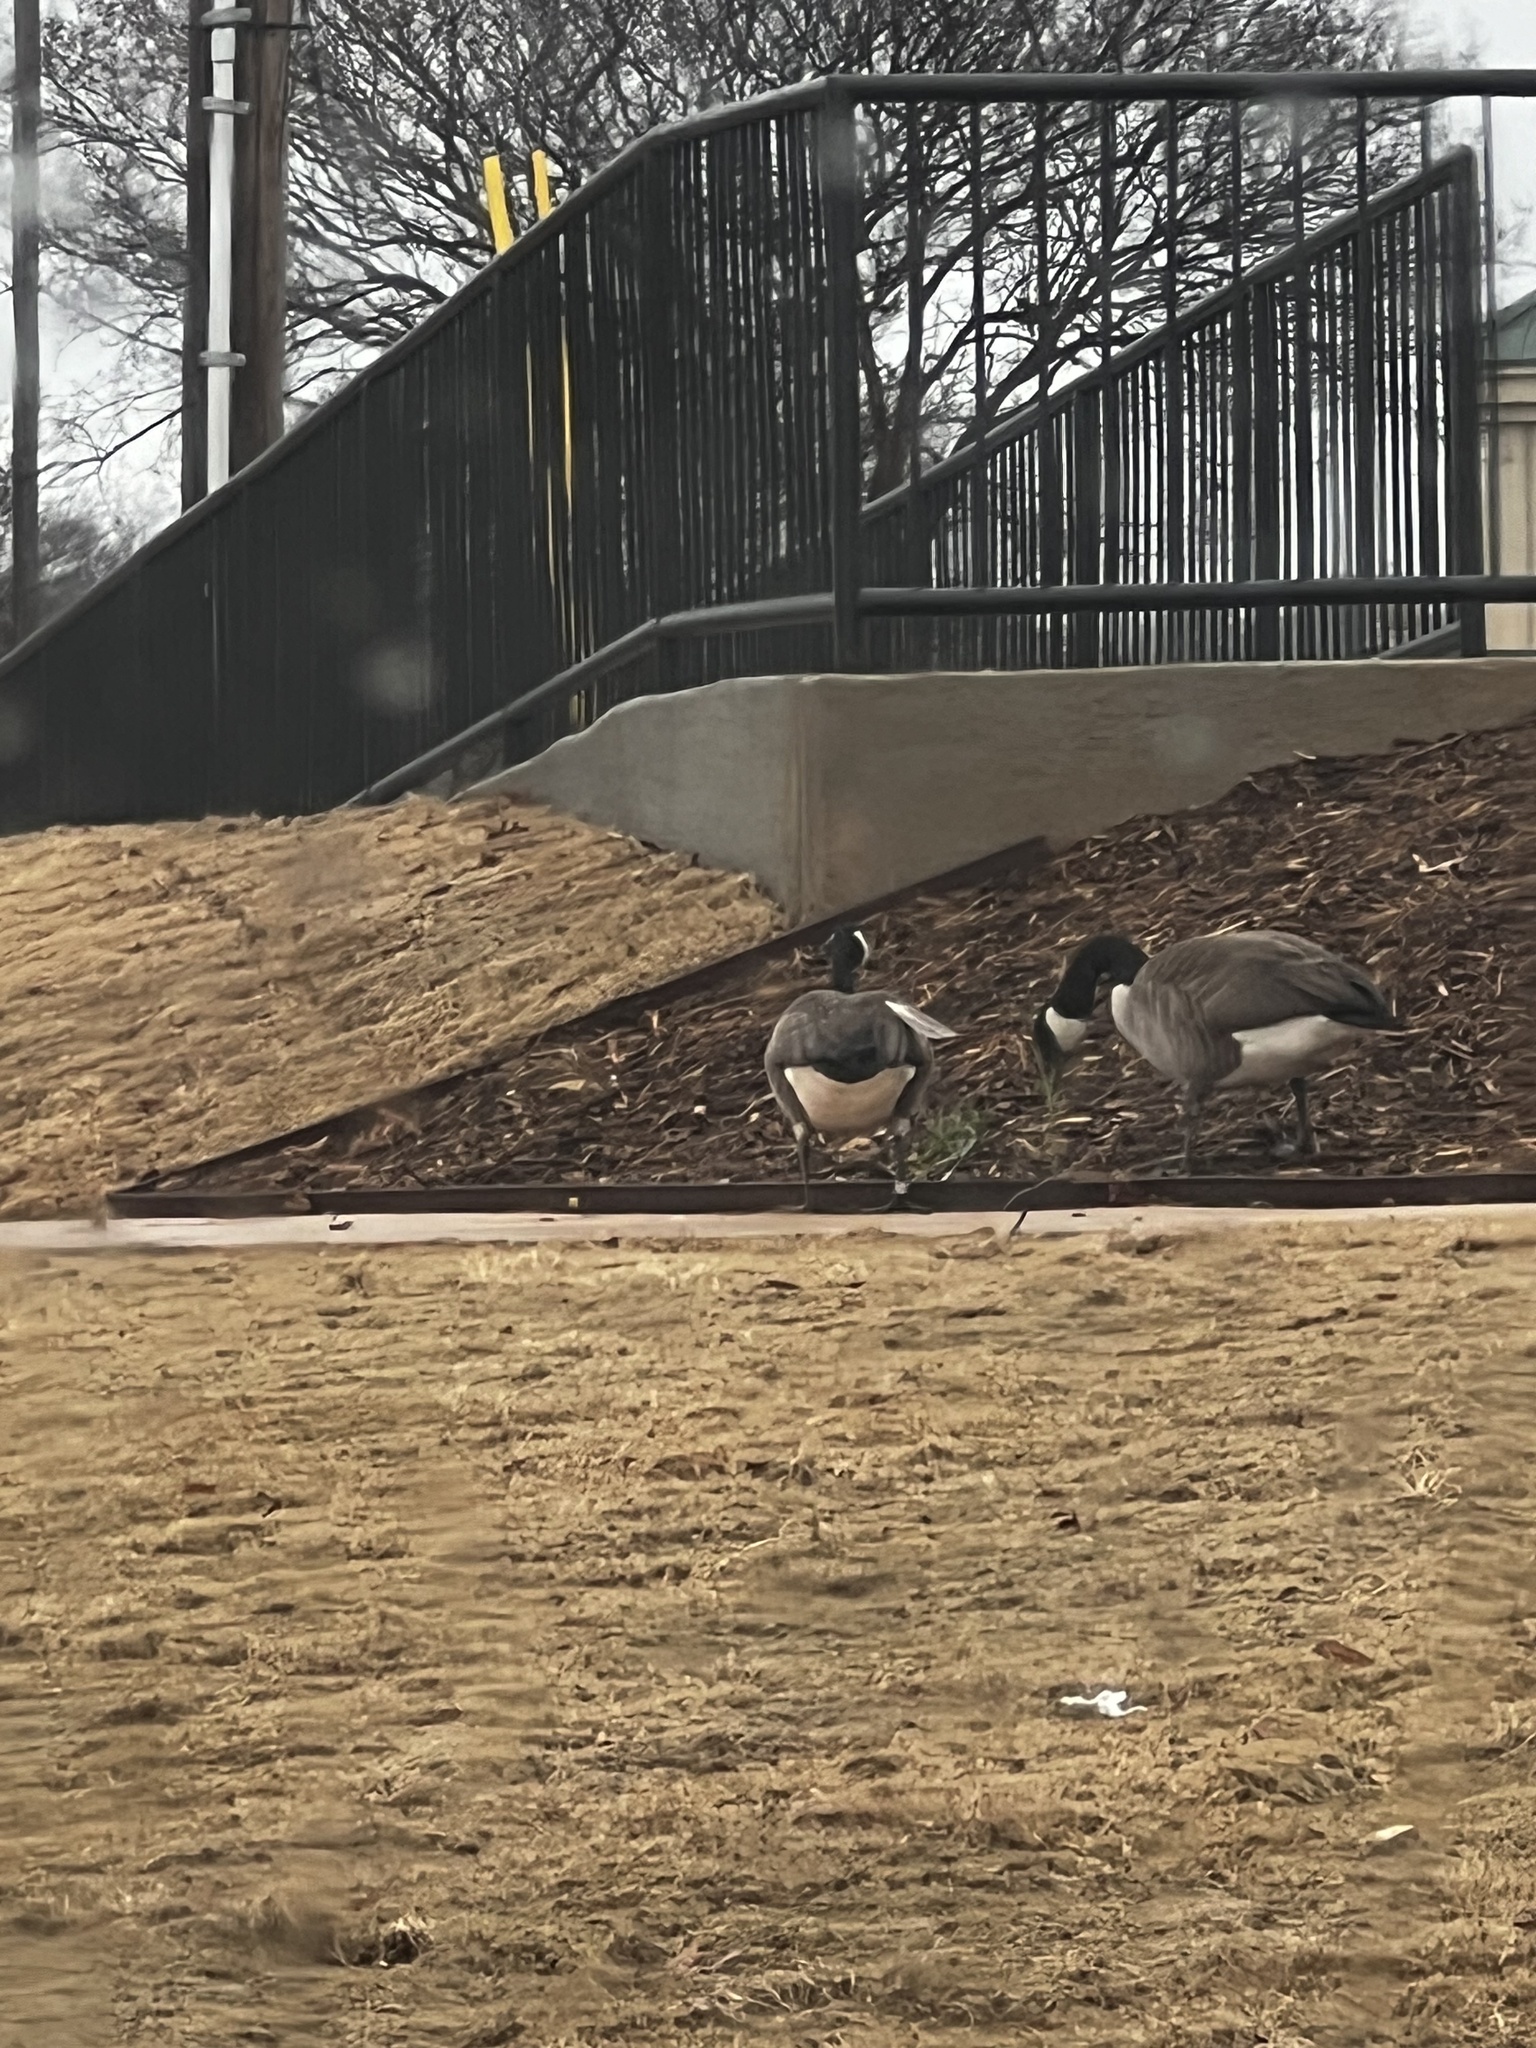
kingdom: Animalia
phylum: Chordata
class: Aves
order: Anseriformes
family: Anatidae
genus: Branta
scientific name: Branta canadensis
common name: Canada goose
